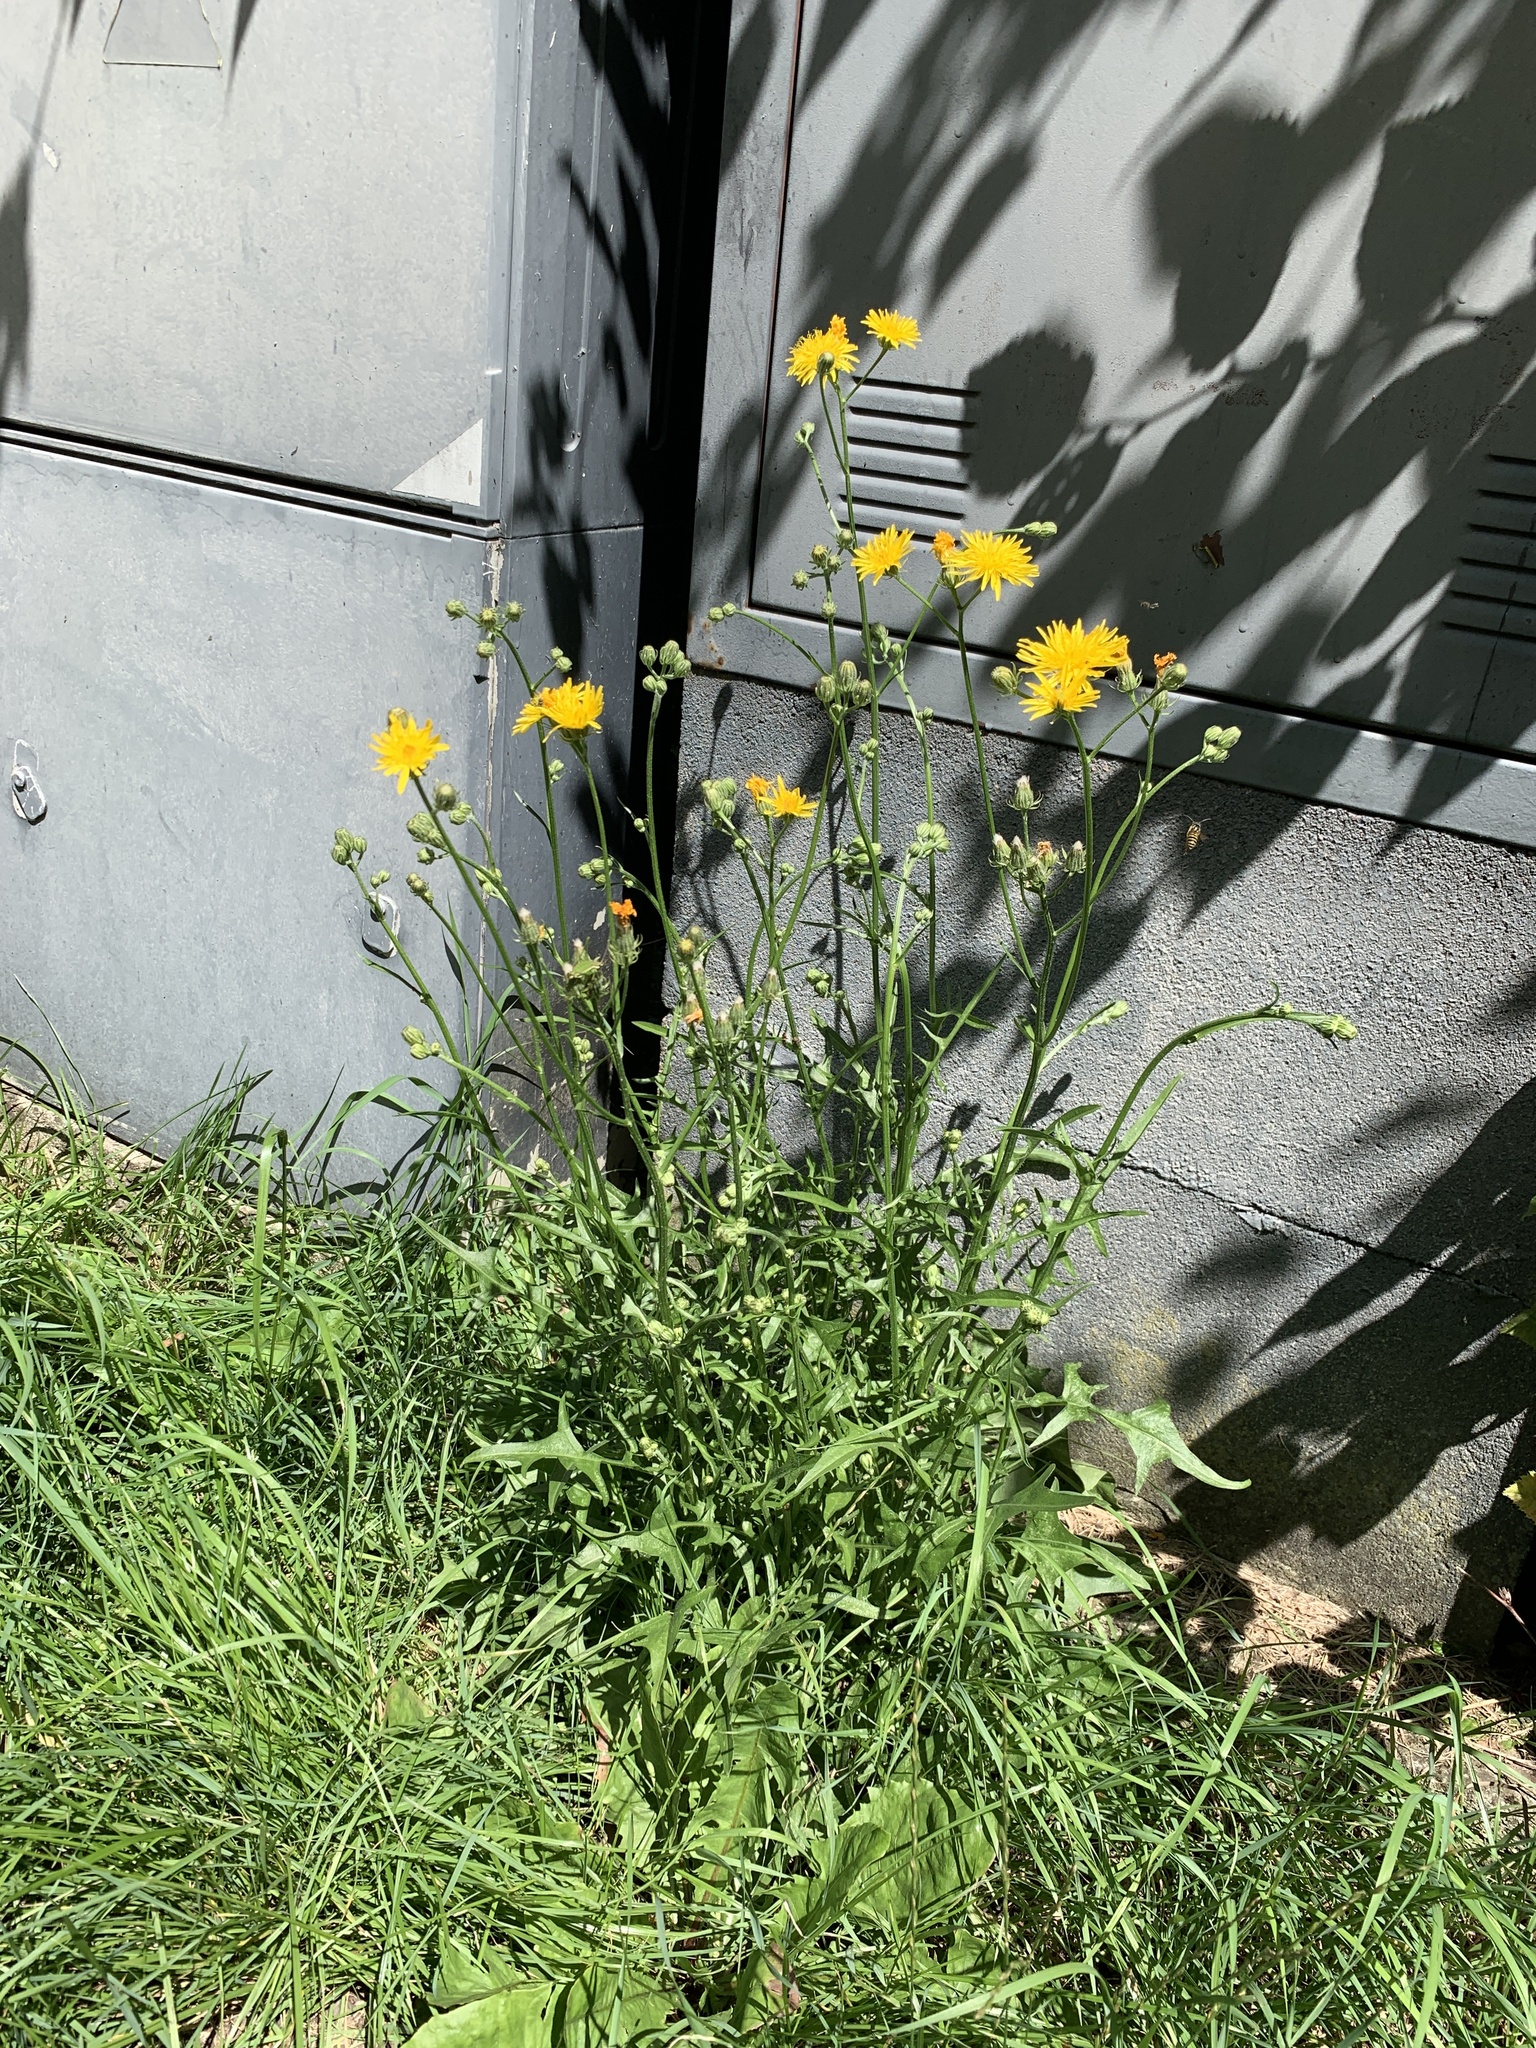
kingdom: Plantae
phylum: Tracheophyta
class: Magnoliopsida
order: Asterales
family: Asteraceae
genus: Crepis
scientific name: Crepis biennis
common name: Rough hawk's-beard
